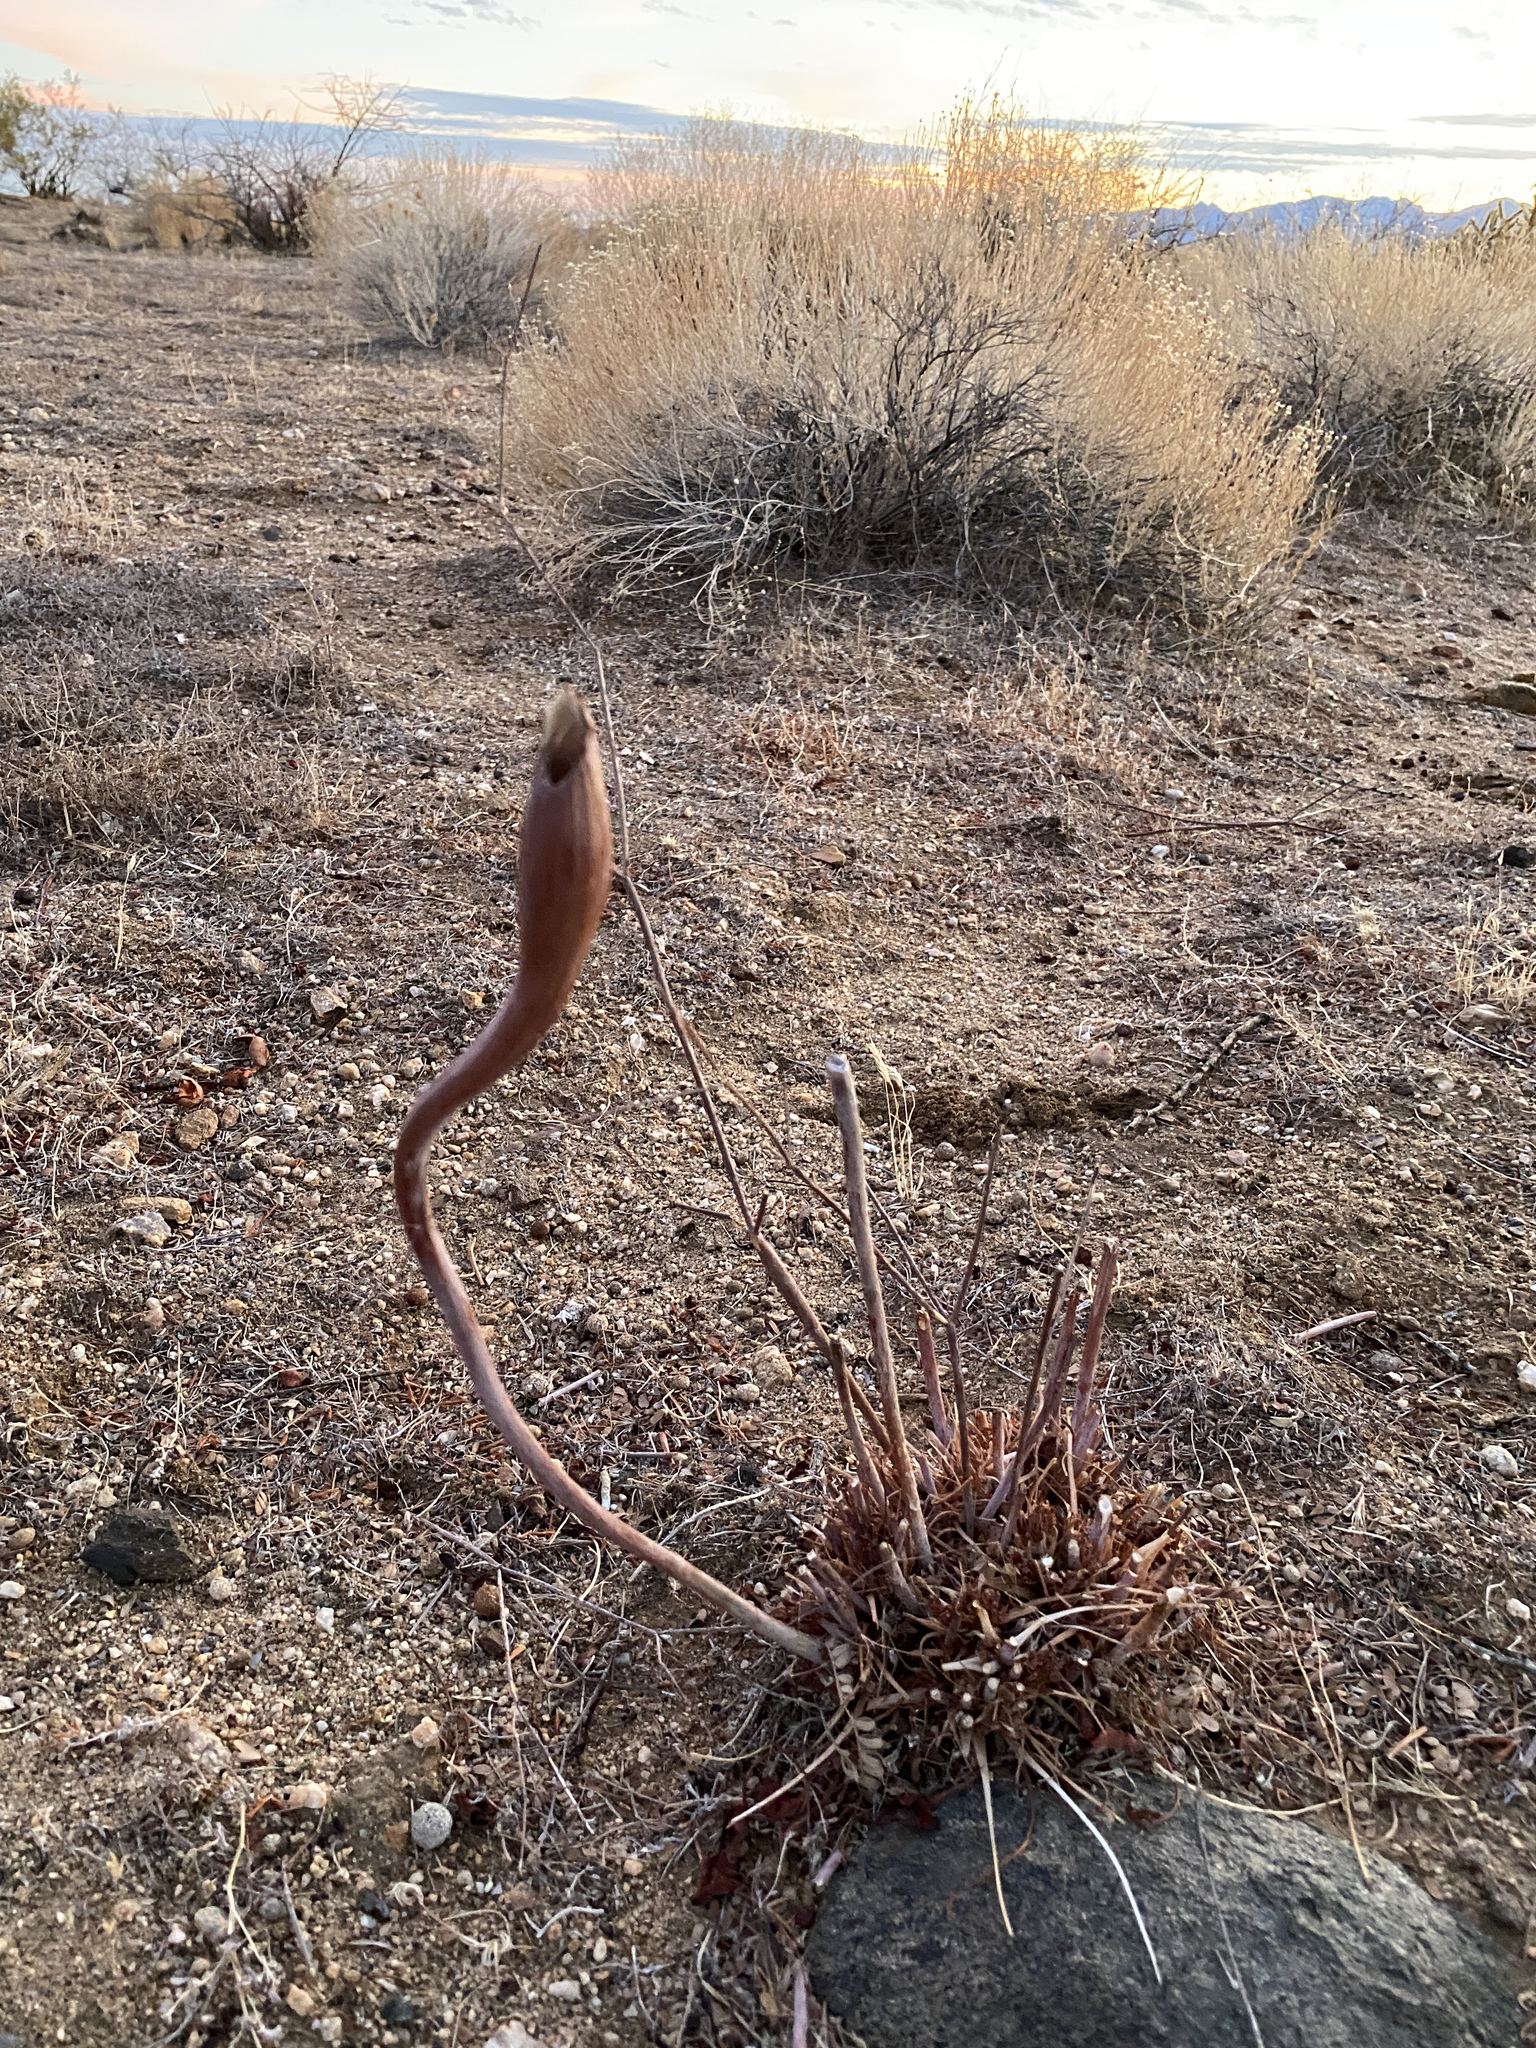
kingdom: Plantae
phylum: Tracheophyta
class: Magnoliopsida
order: Caryophyllales
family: Polygonaceae
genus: Eriogonum
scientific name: Eriogonum inflatum
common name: Desert trumpet
